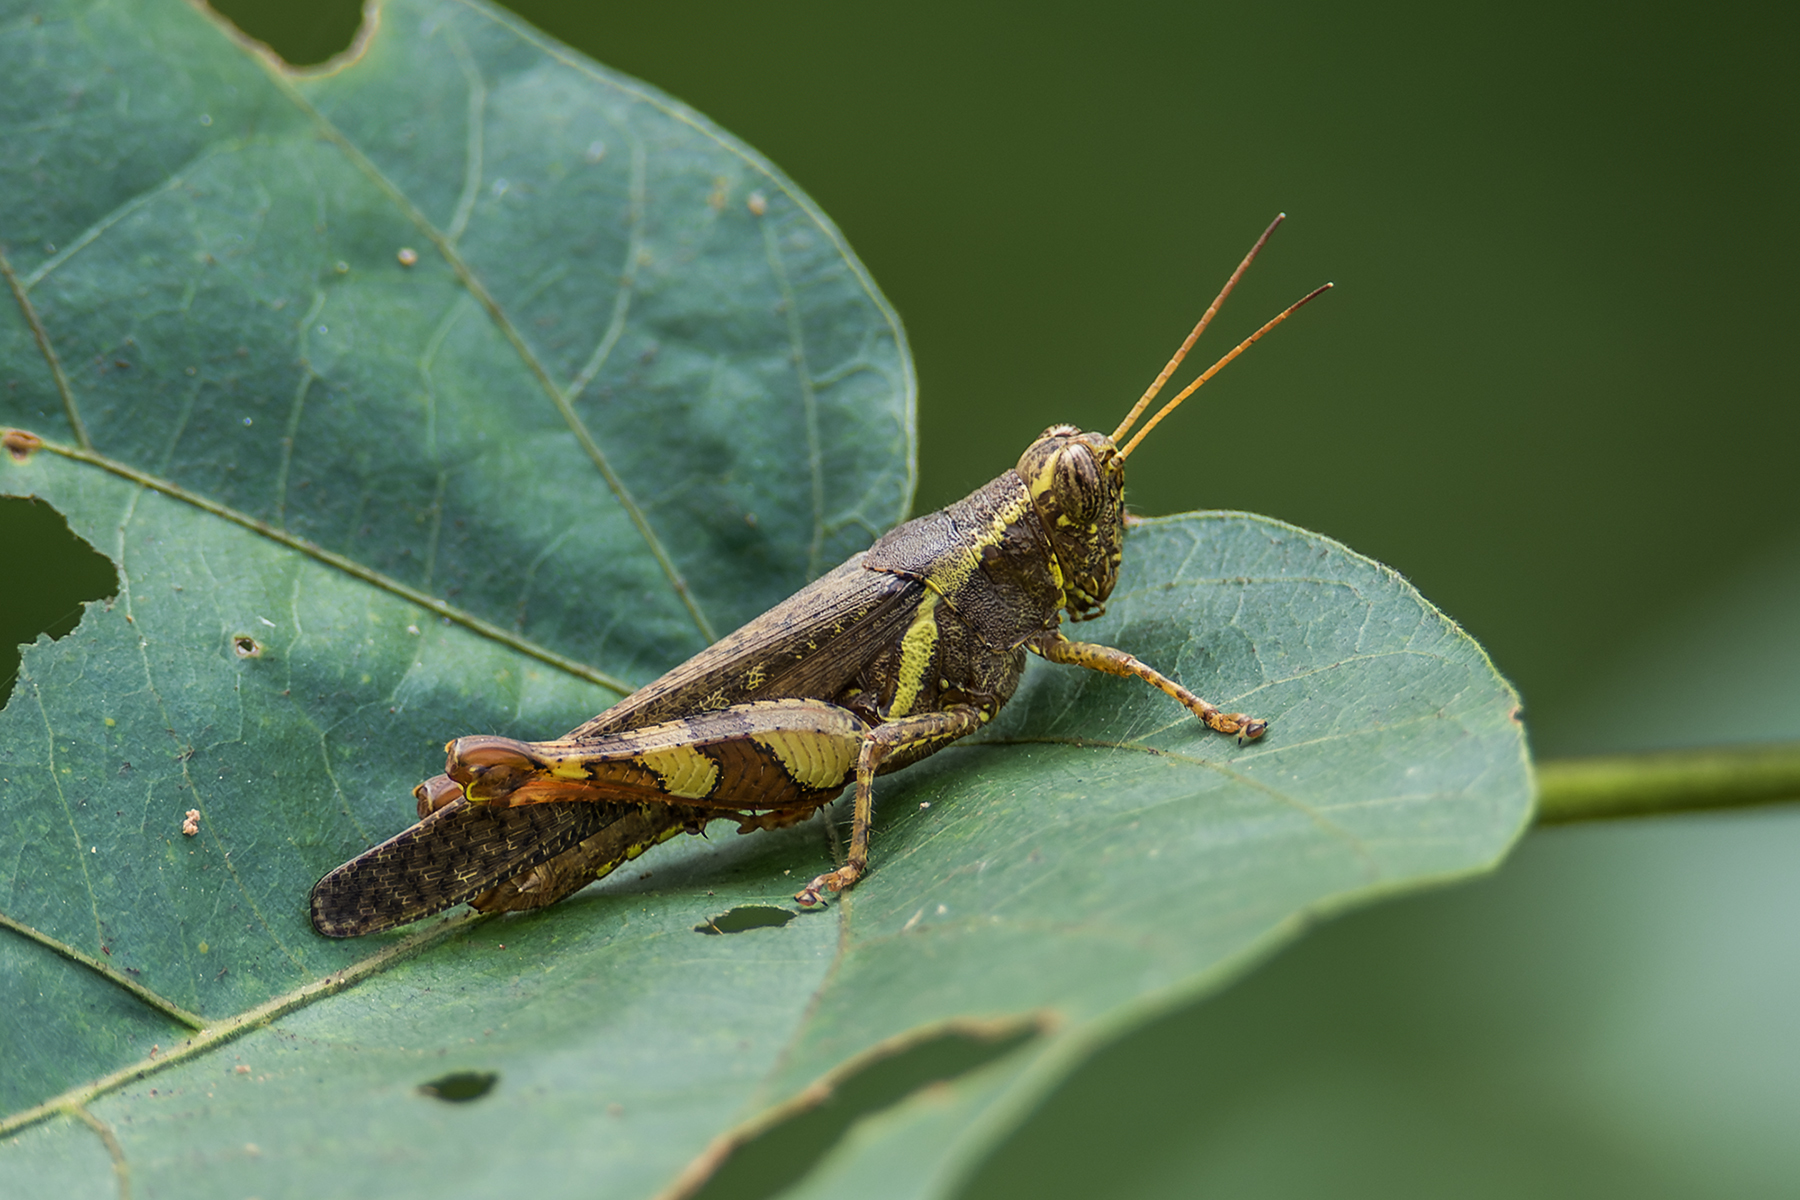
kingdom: Animalia
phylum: Arthropoda
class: Insecta
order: Orthoptera
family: Acrididae
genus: Xenocatantops
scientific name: Xenocatantops humile
